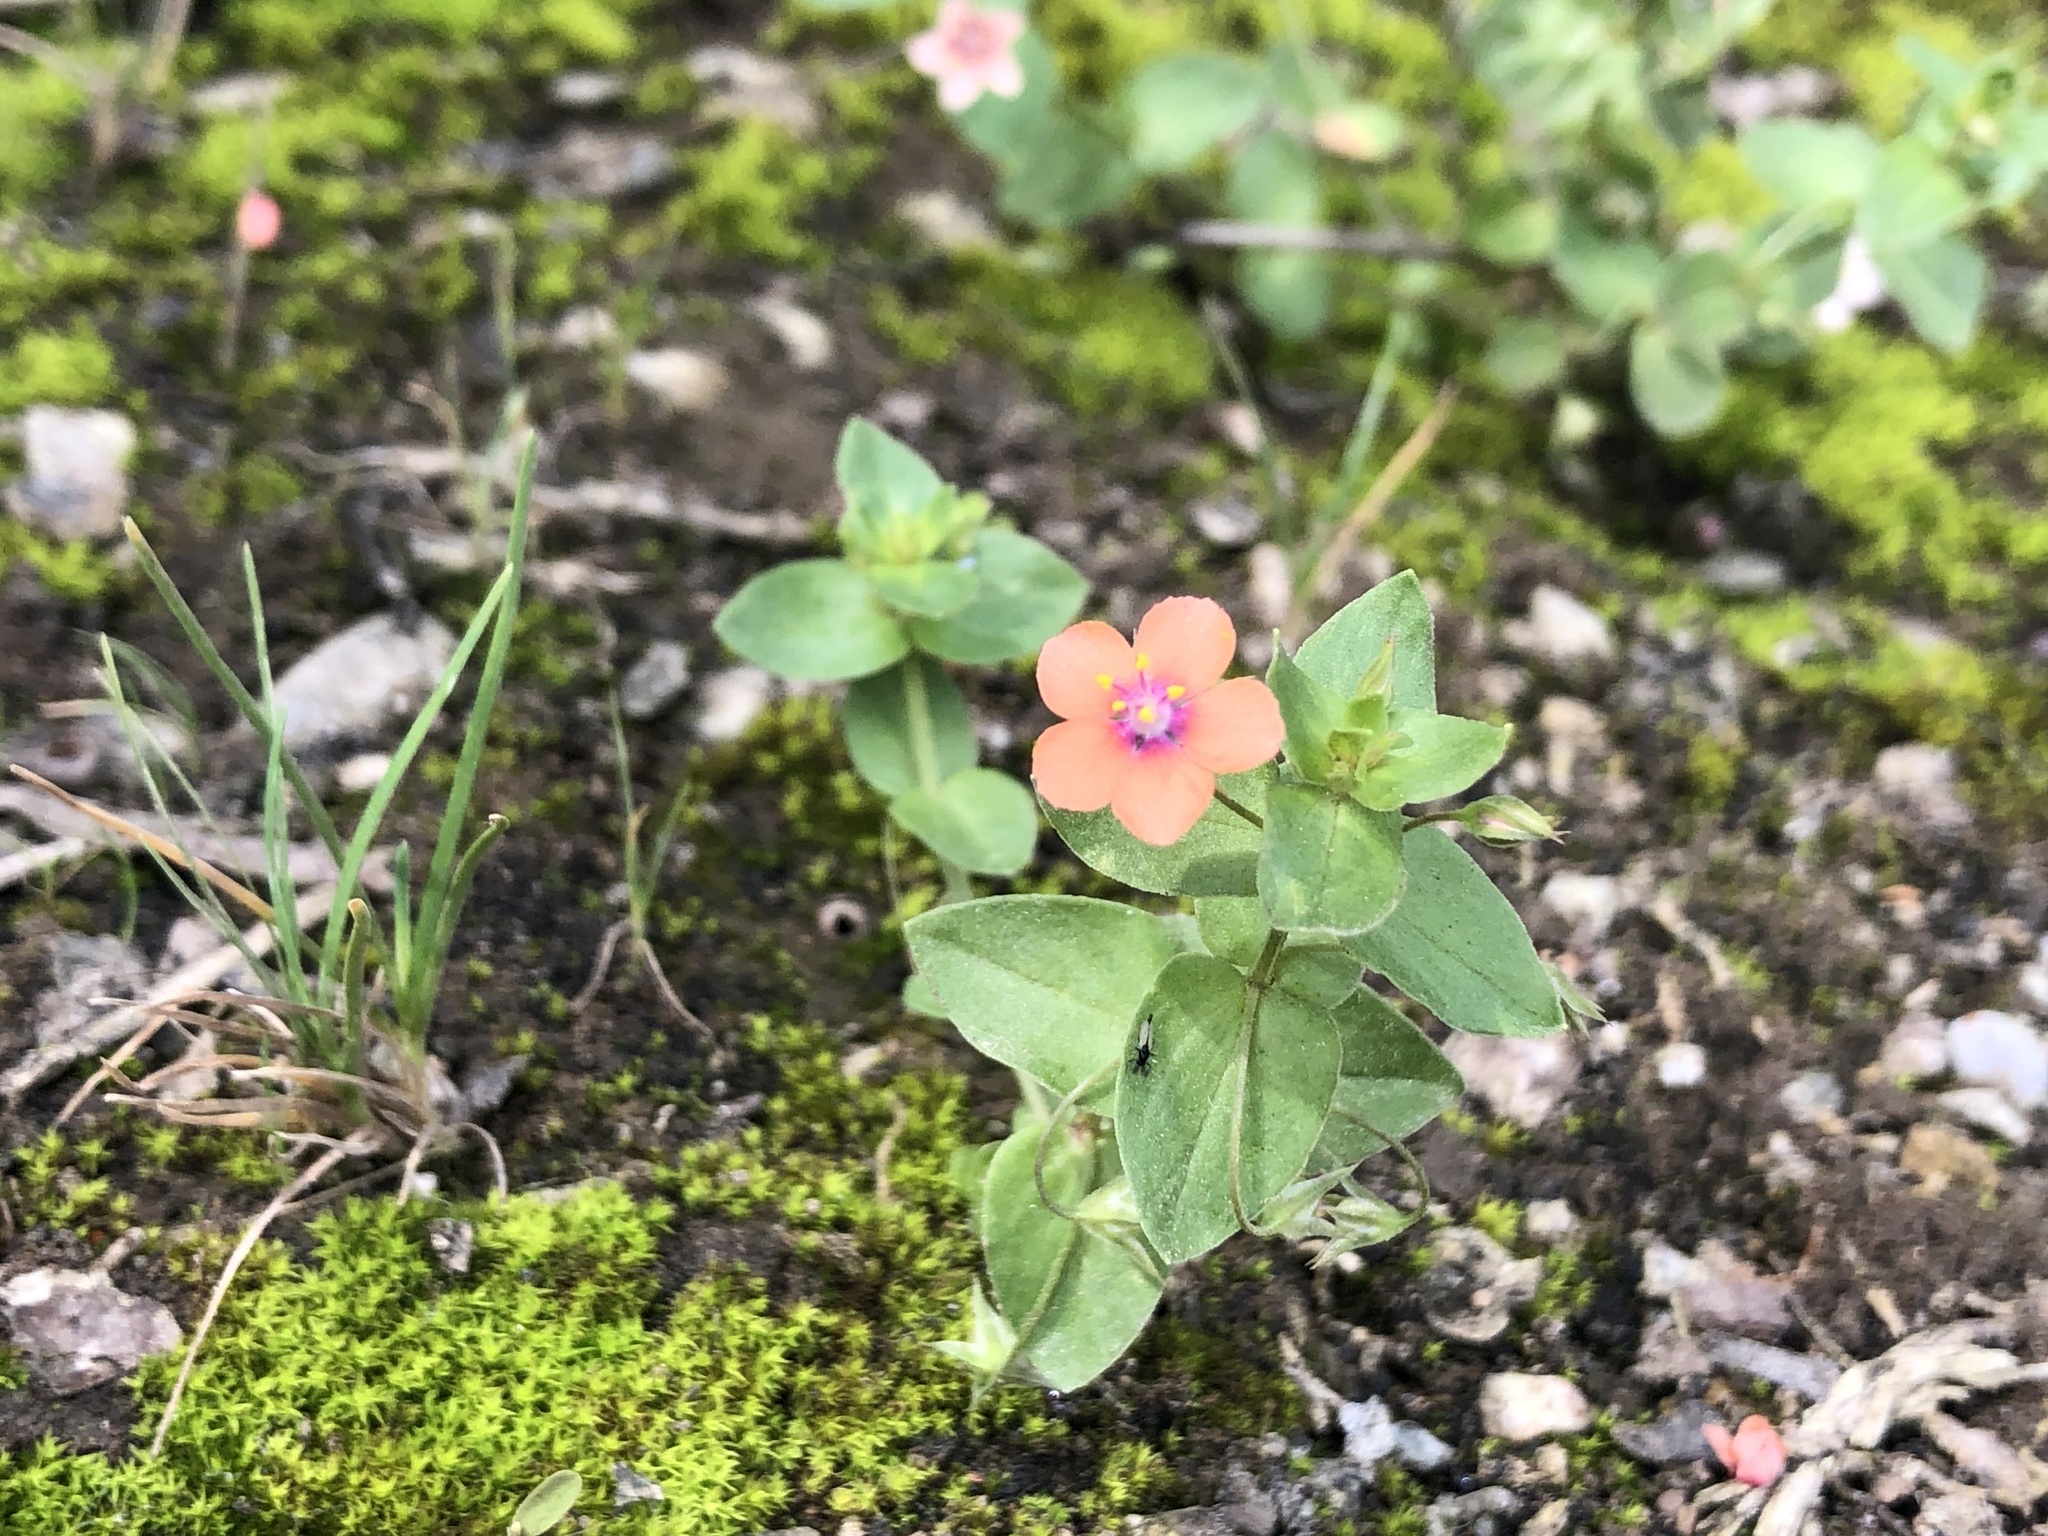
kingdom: Plantae
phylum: Tracheophyta
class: Magnoliopsida
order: Ericales
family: Primulaceae
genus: Lysimachia
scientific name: Lysimachia arvensis
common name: Scarlet pimpernel
